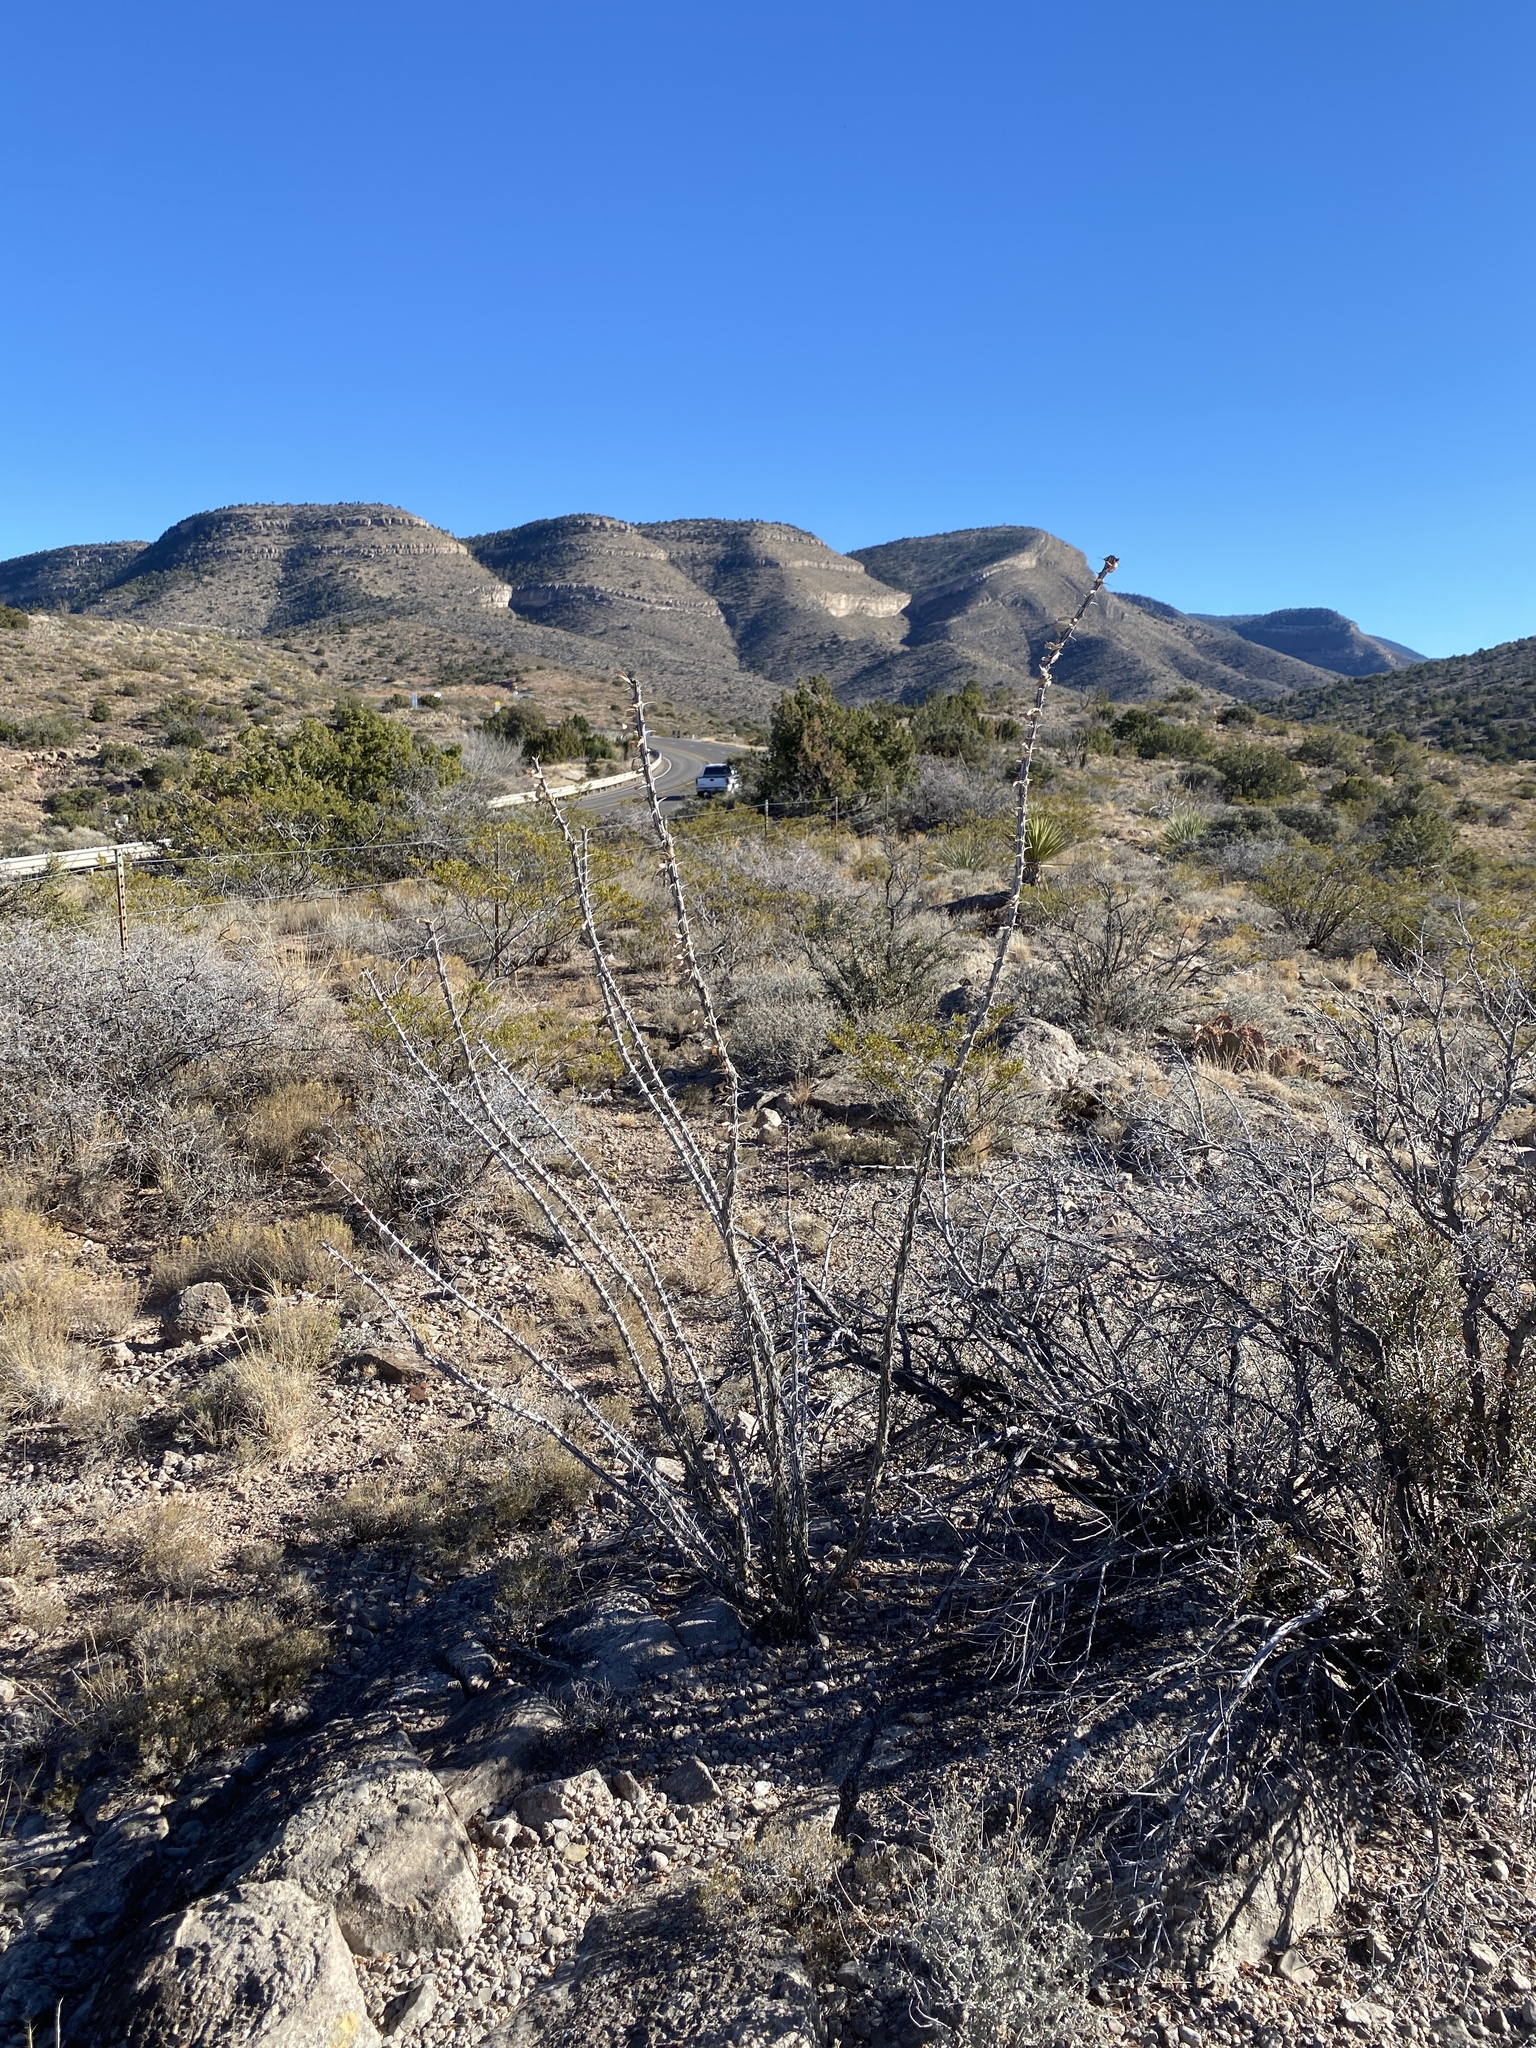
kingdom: Plantae
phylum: Tracheophyta
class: Magnoliopsida
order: Ericales
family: Fouquieriaceae
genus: Fouquieria
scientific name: Fouquieria splendens
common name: Vine-cactus
